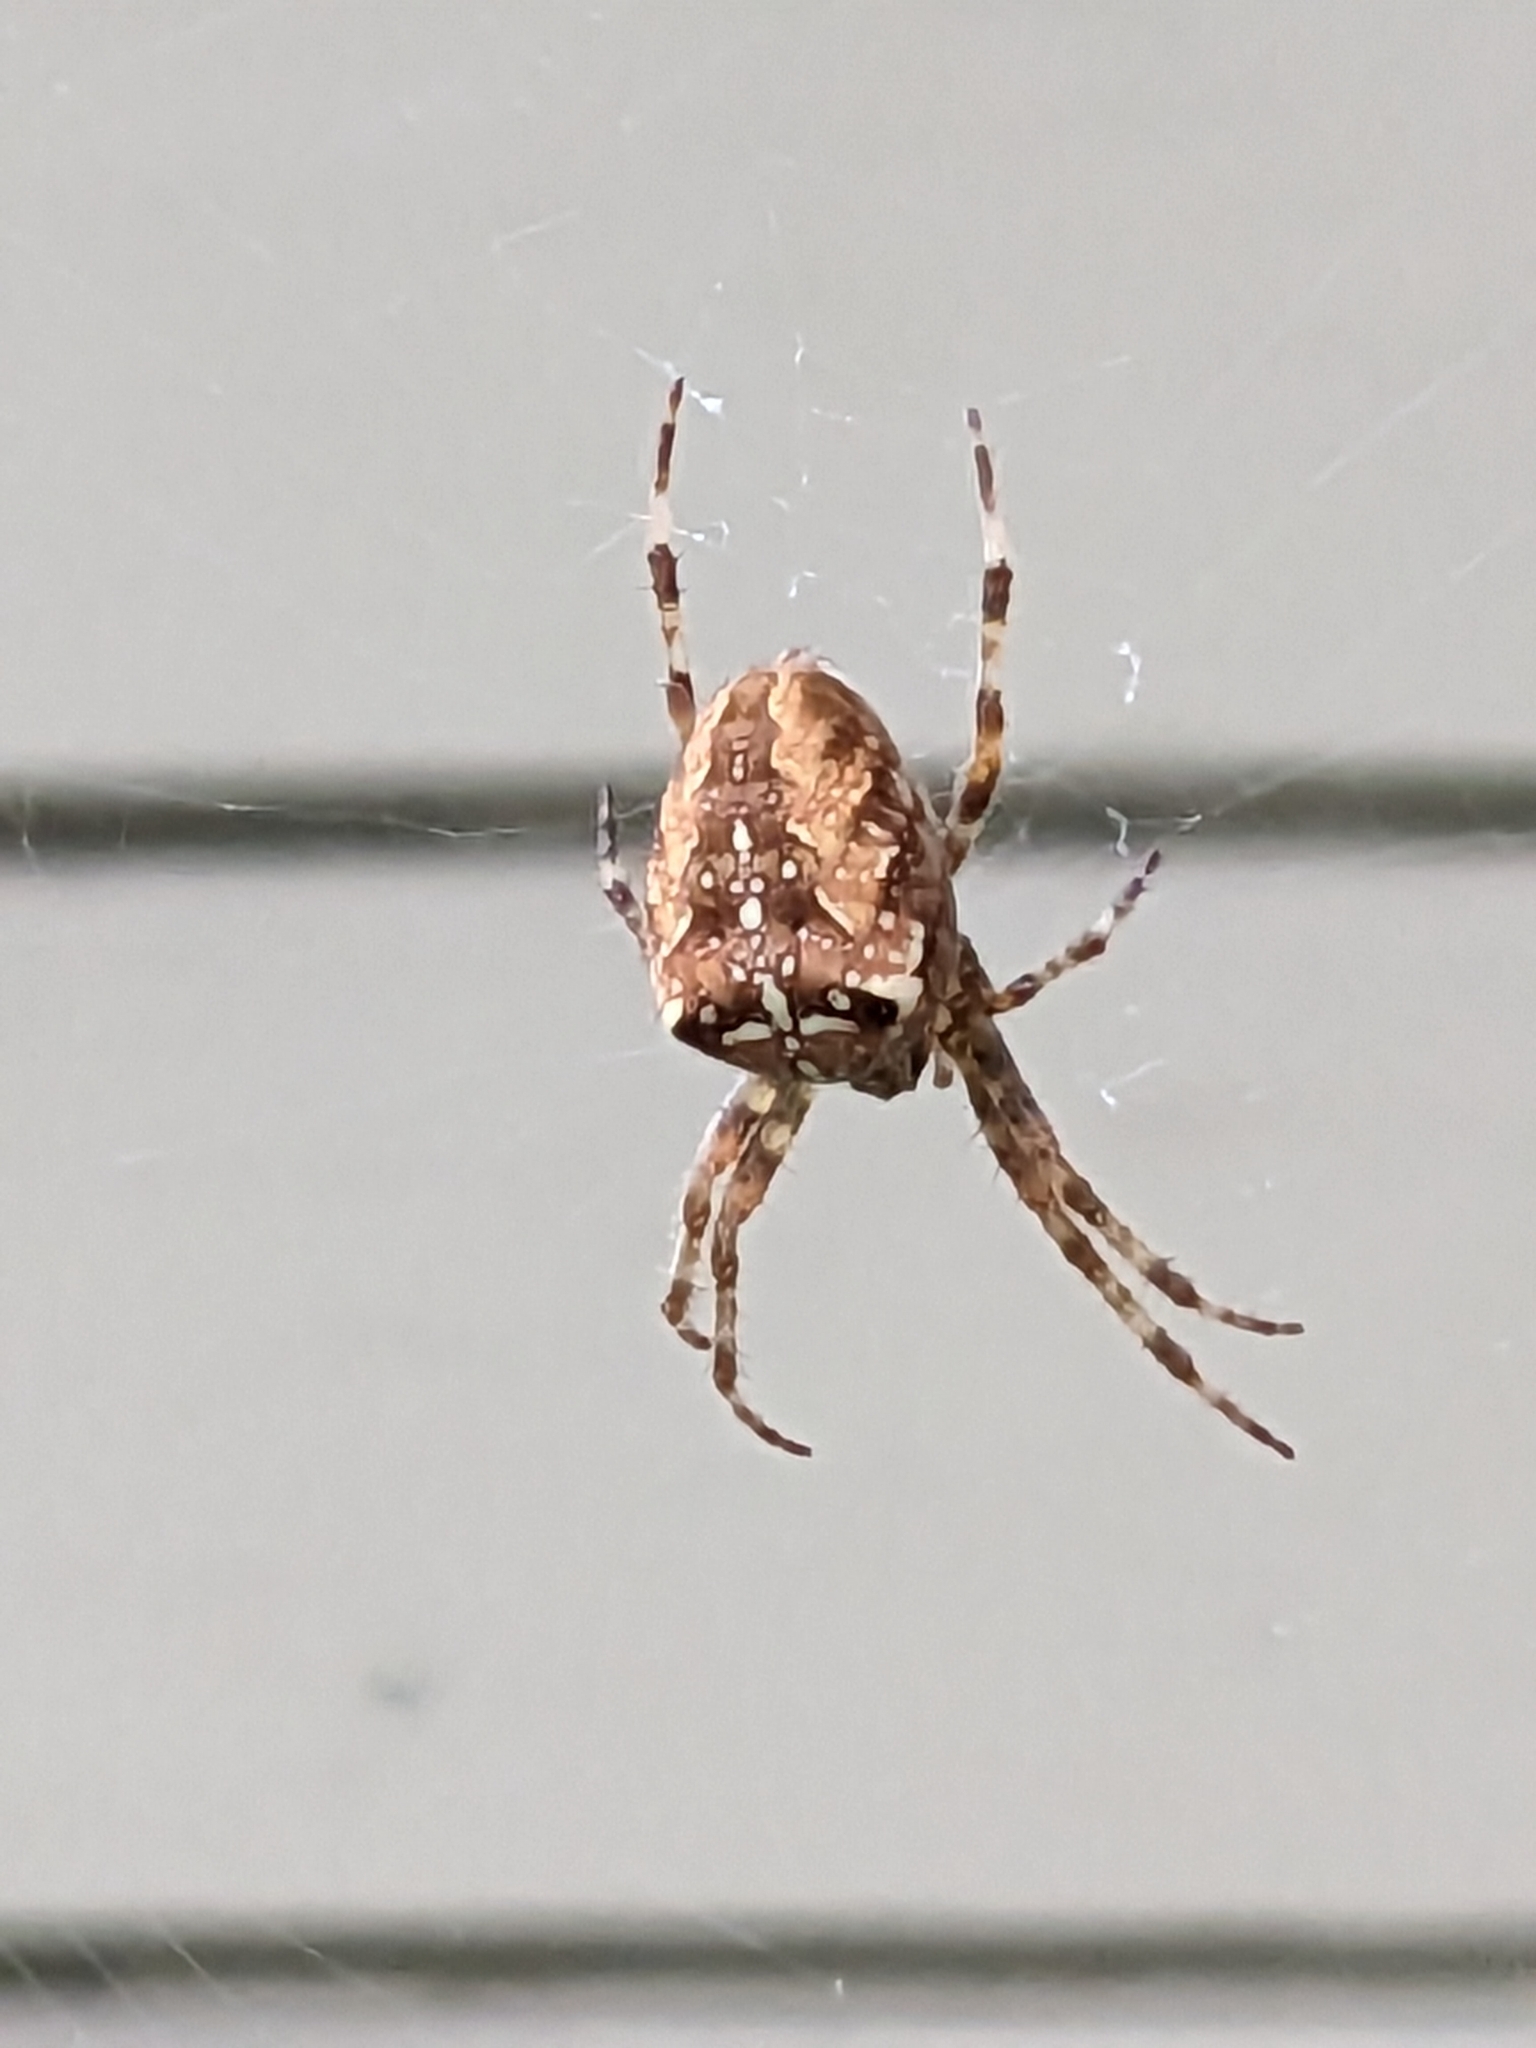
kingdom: Animalia
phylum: Arthropoda
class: Arachnida
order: Araneae
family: Araneidae
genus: Araneus
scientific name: Araneus diadematus
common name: Cross orbweaver
